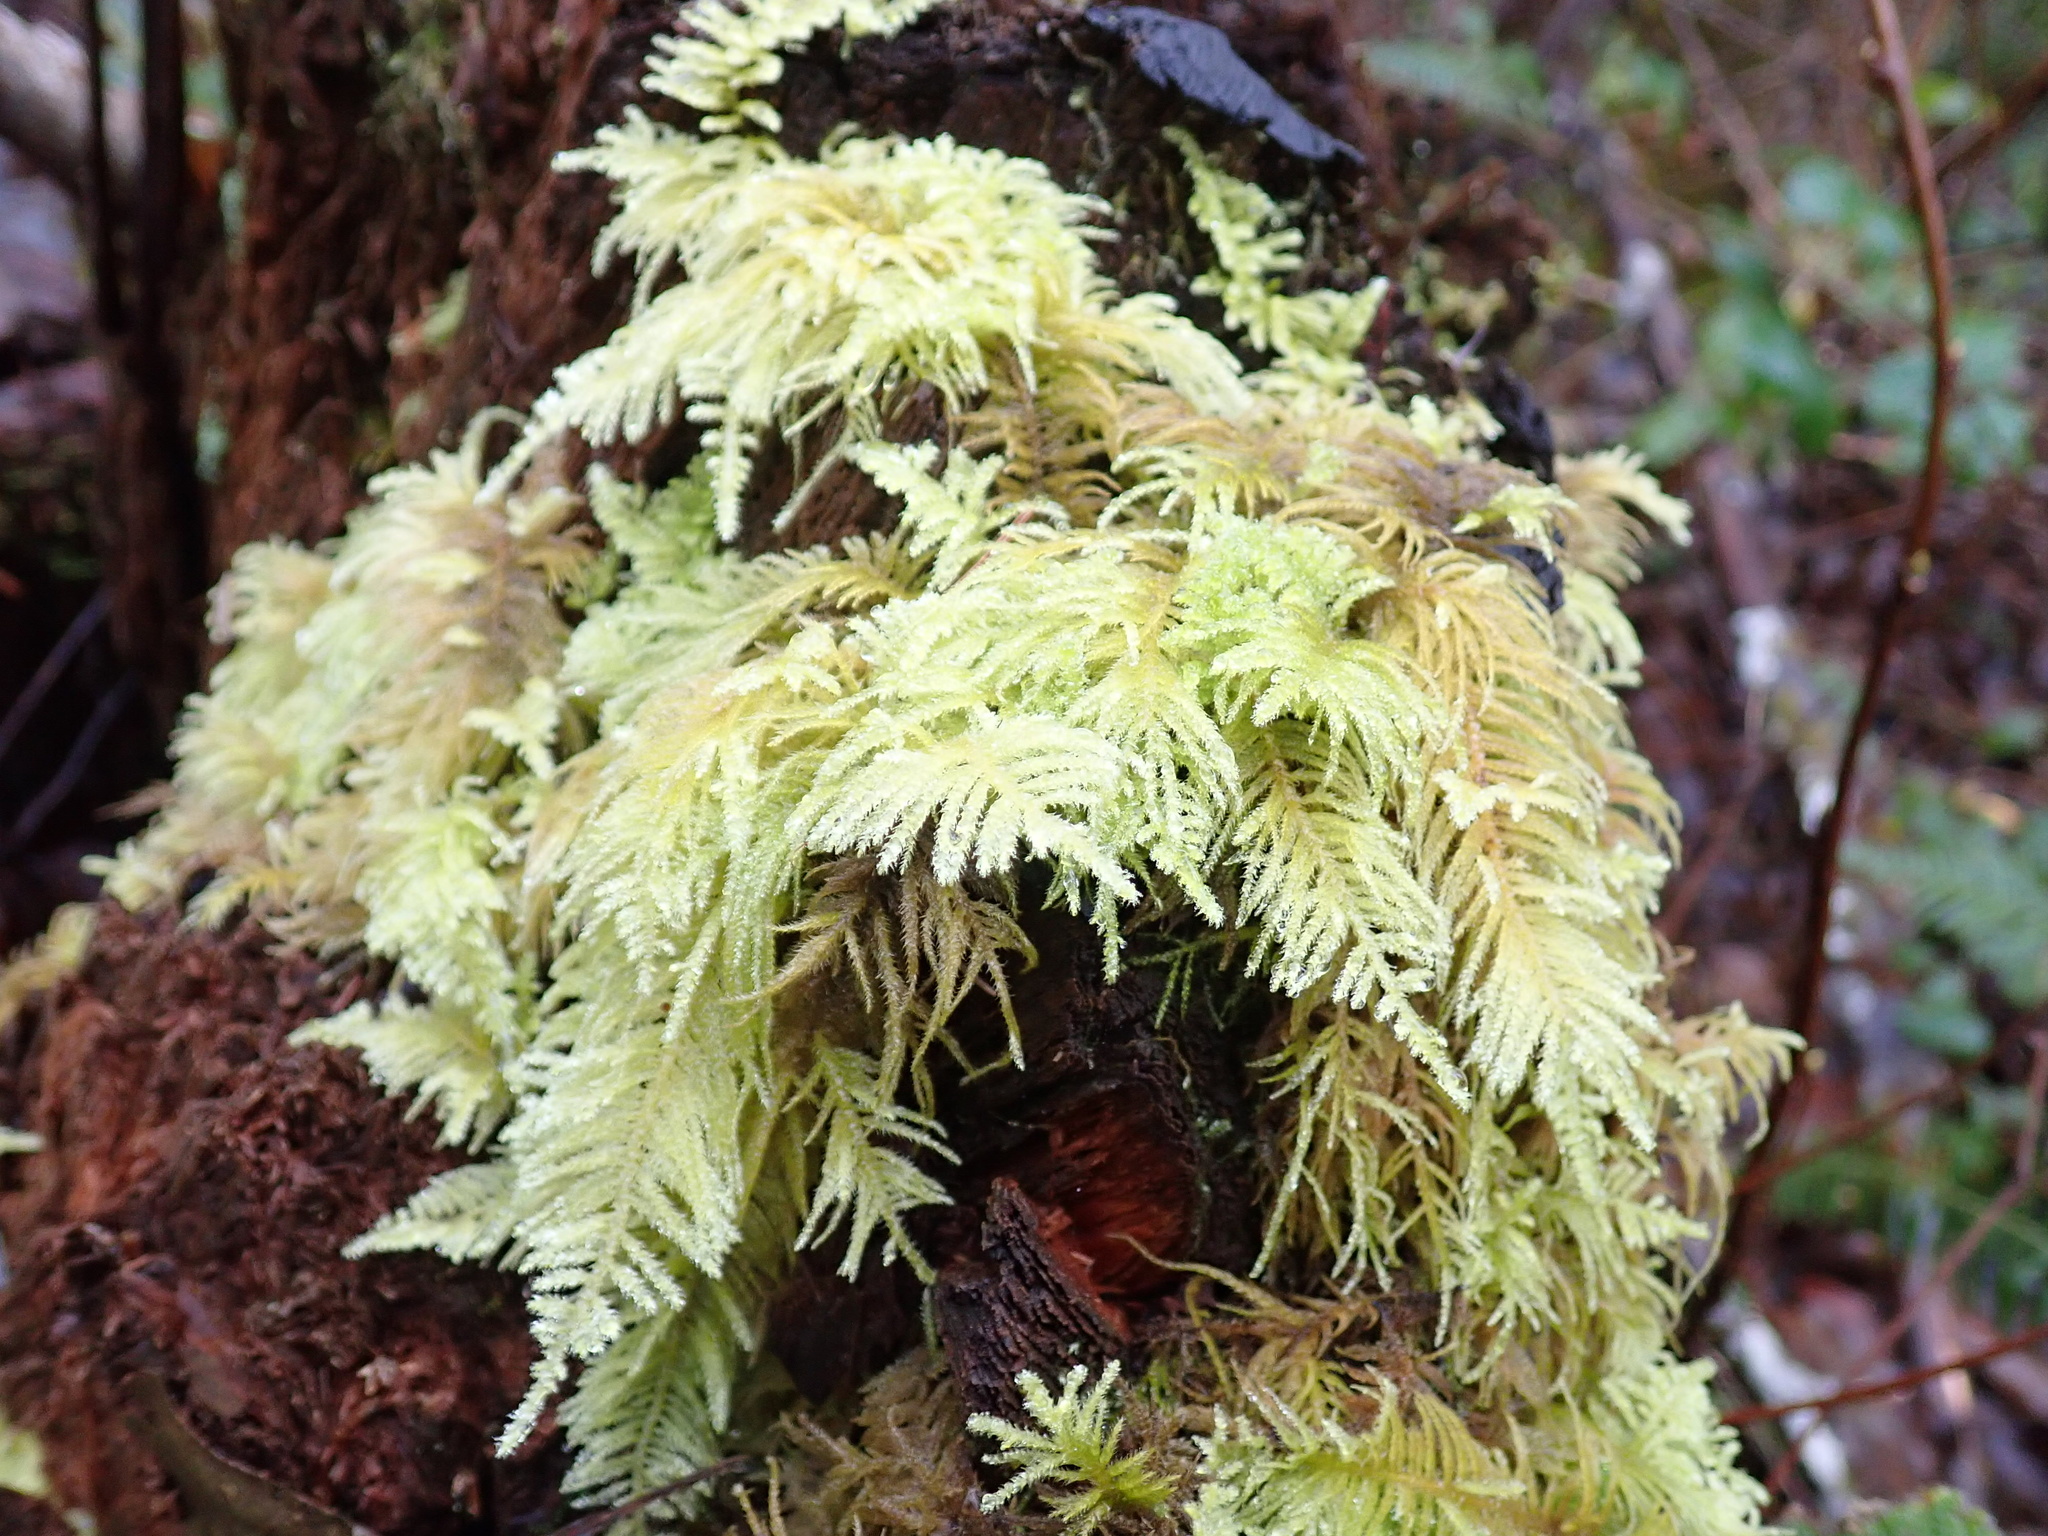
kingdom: Plantae
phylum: Bryophyta
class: Bryopsida
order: Hypnales
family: Brachytheciaceae
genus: Kindbergia
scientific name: Kindbergia oregana
